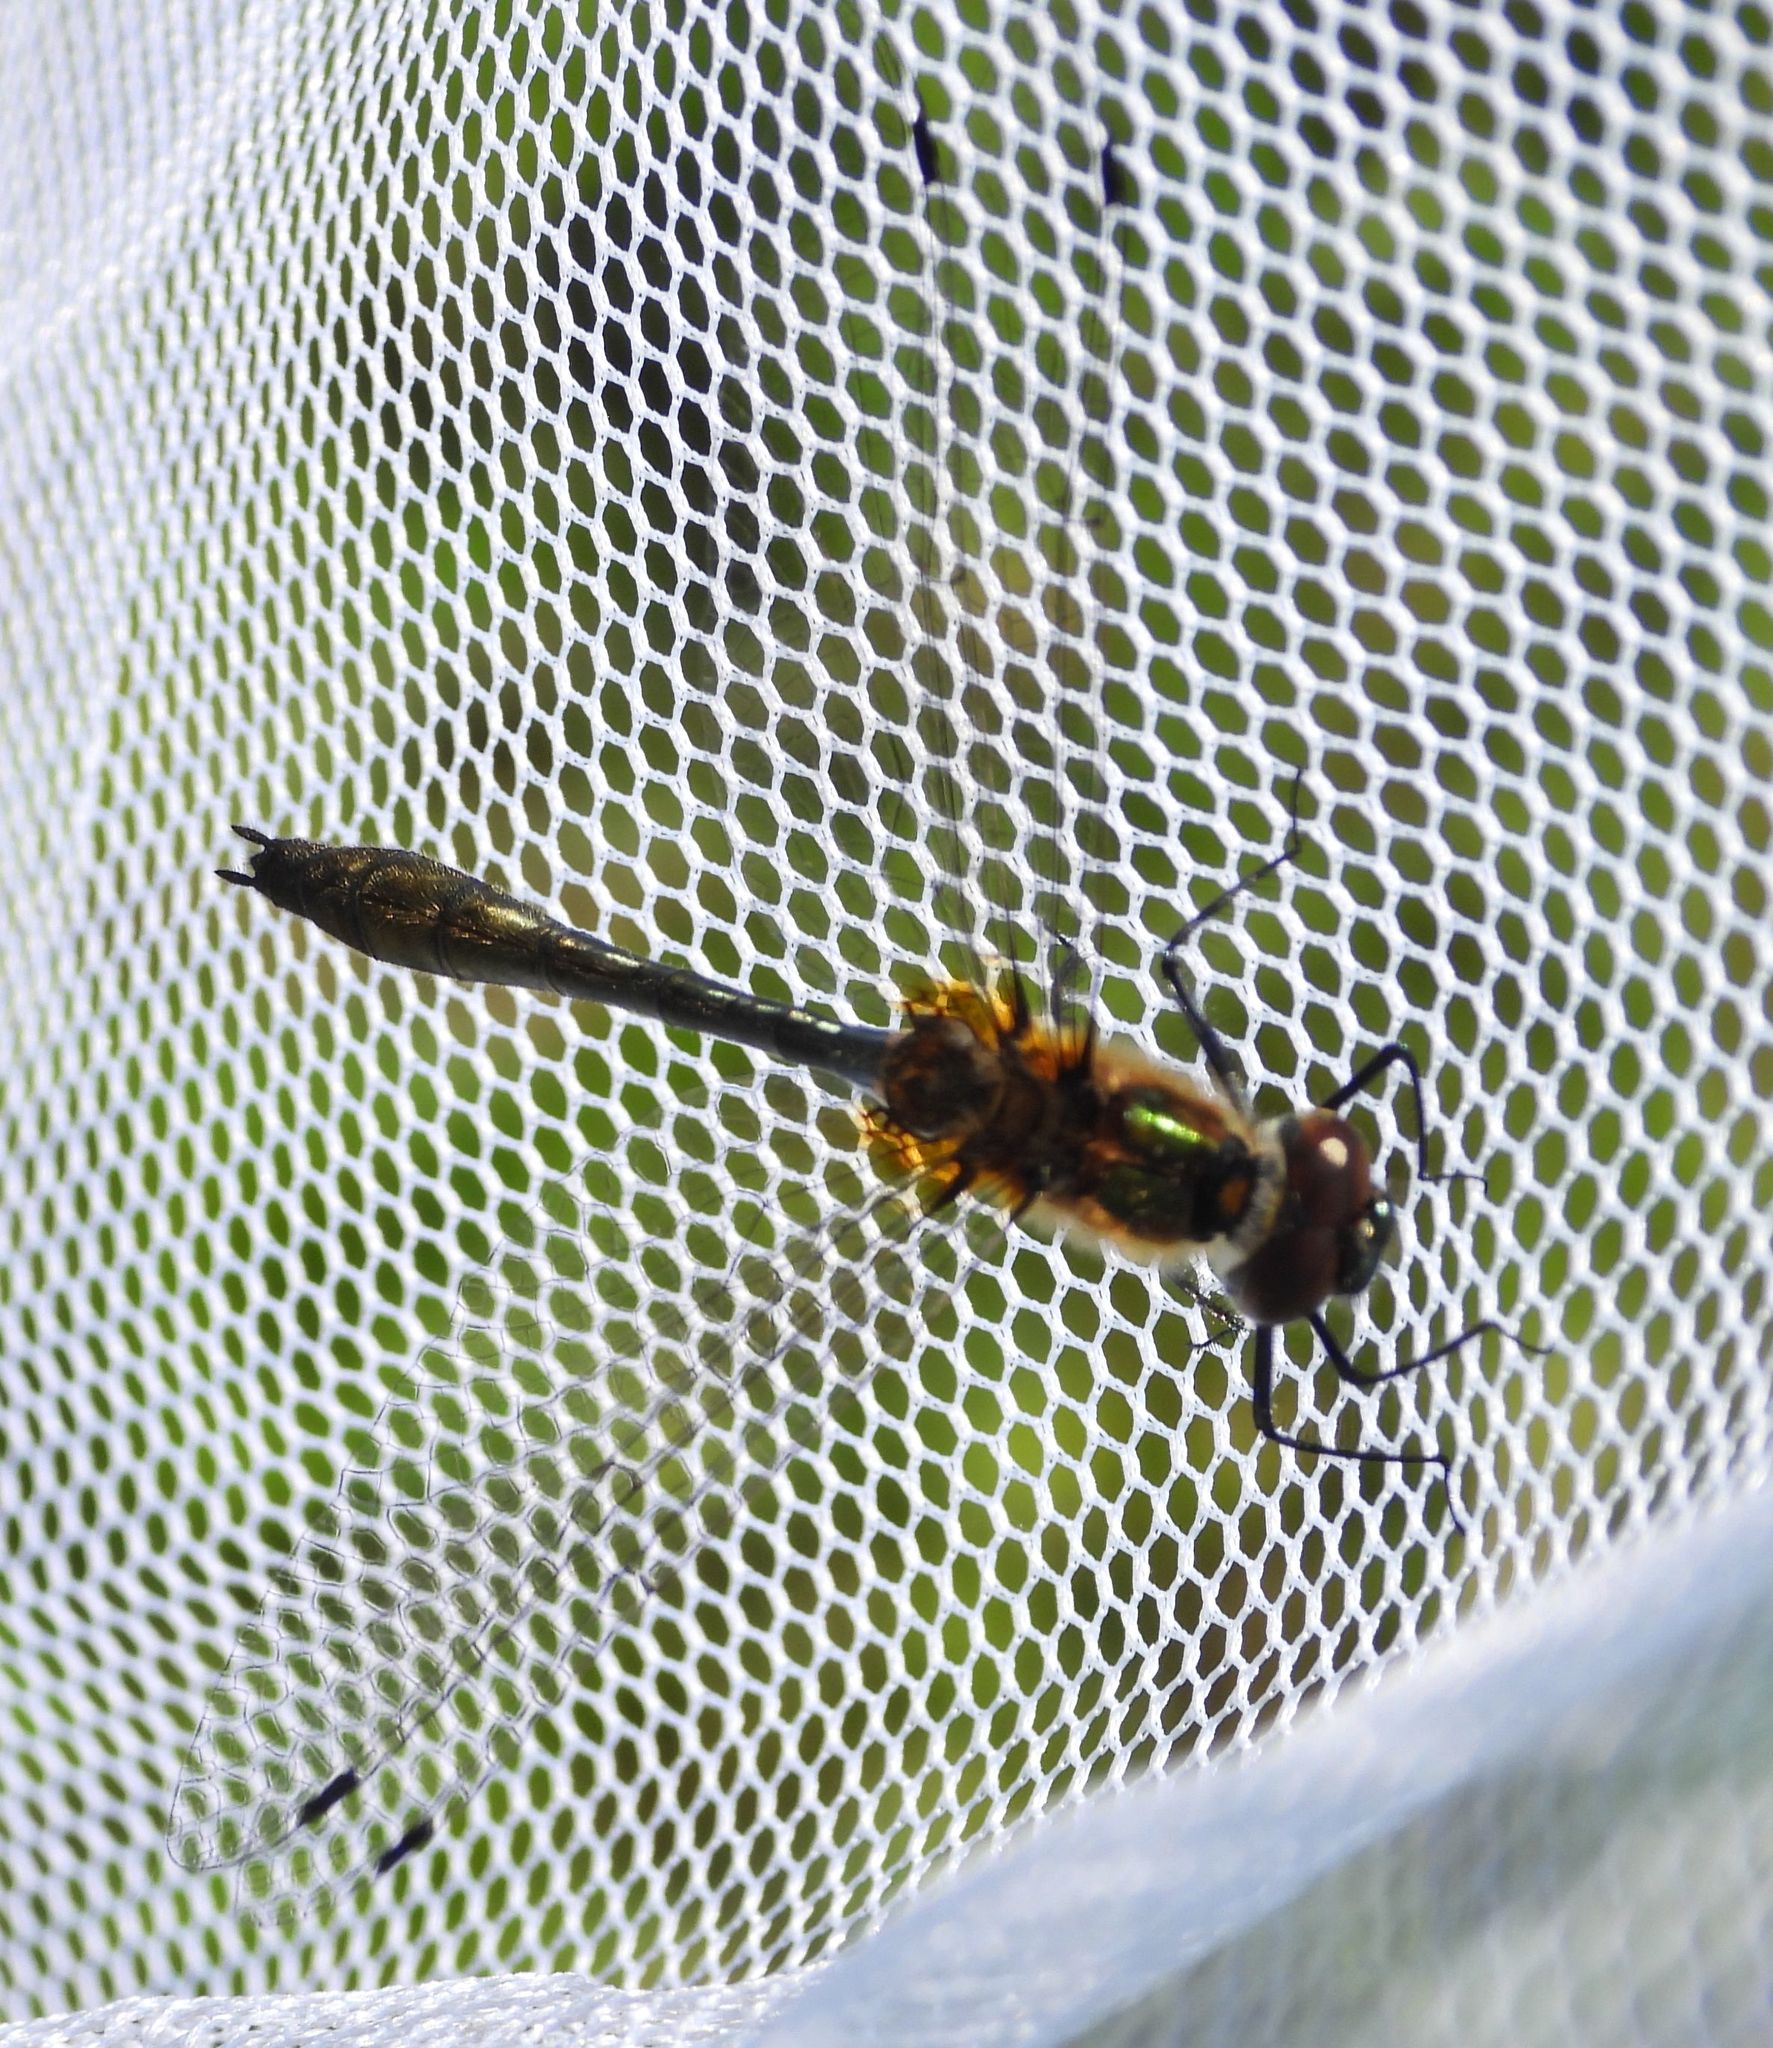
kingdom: Animalia
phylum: Arthropoda
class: Insecta
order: Odonata
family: Corduliidae
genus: Dorocordulia
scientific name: Dorocordulia libera
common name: Racket-tailed emerald
